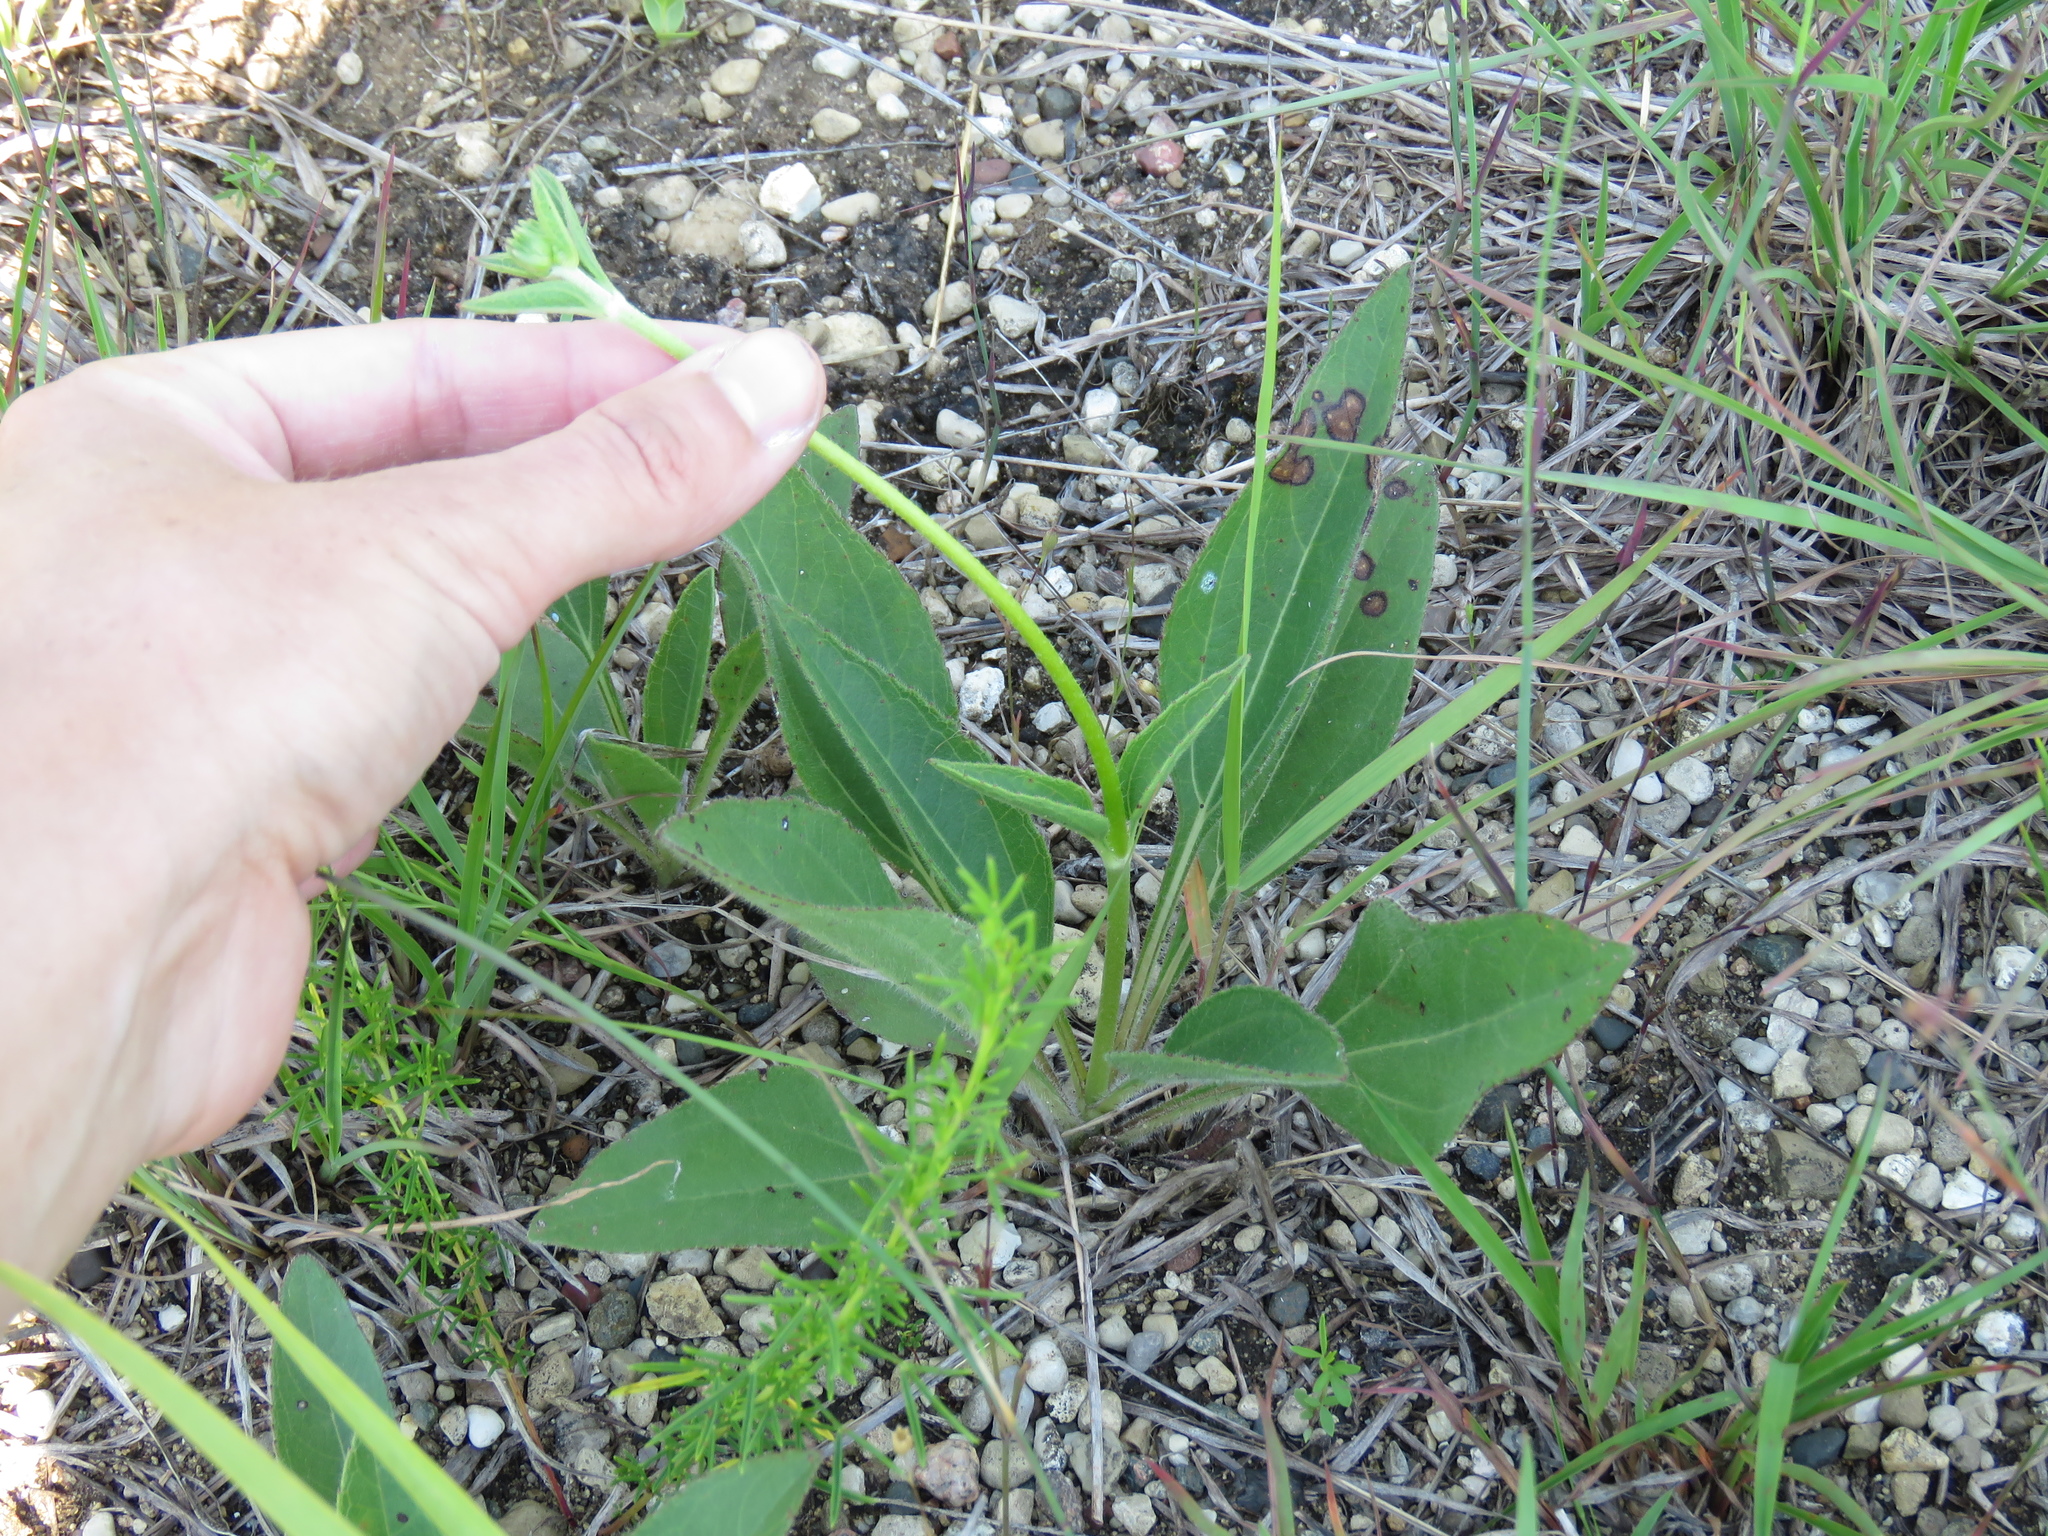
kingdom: Plantae
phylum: Tracheophyta
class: Magnoliopsida
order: Asterales
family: Asteraceae
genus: Helianthus
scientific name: Helianthus occidentalis
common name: Western sunflower
